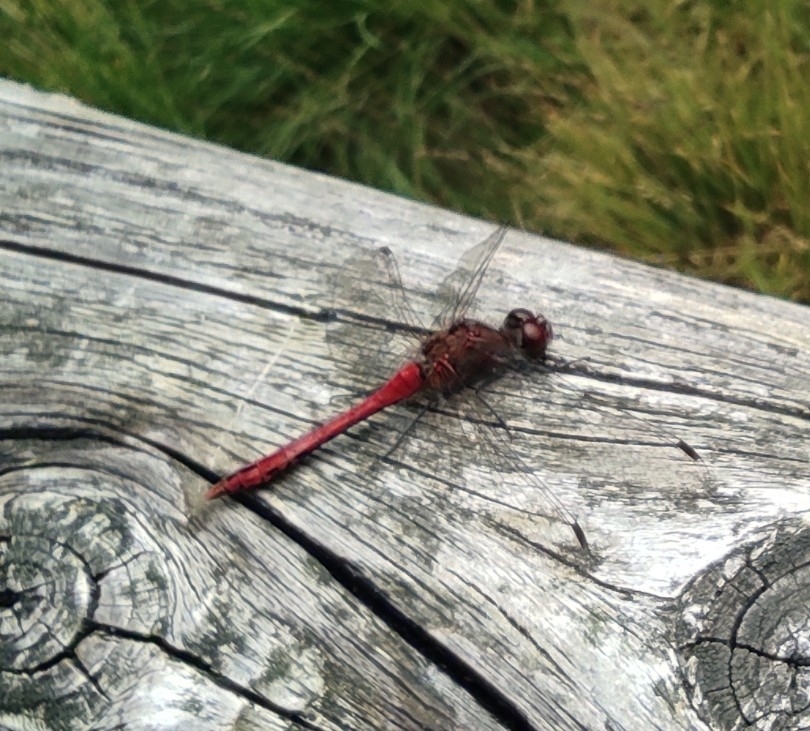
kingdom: Animalia
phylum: Arthropoda
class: Insecta
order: Odonata
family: Libellulidae
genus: Sympetrum
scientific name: Sympetrum sanguineum
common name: Ruddy darter
